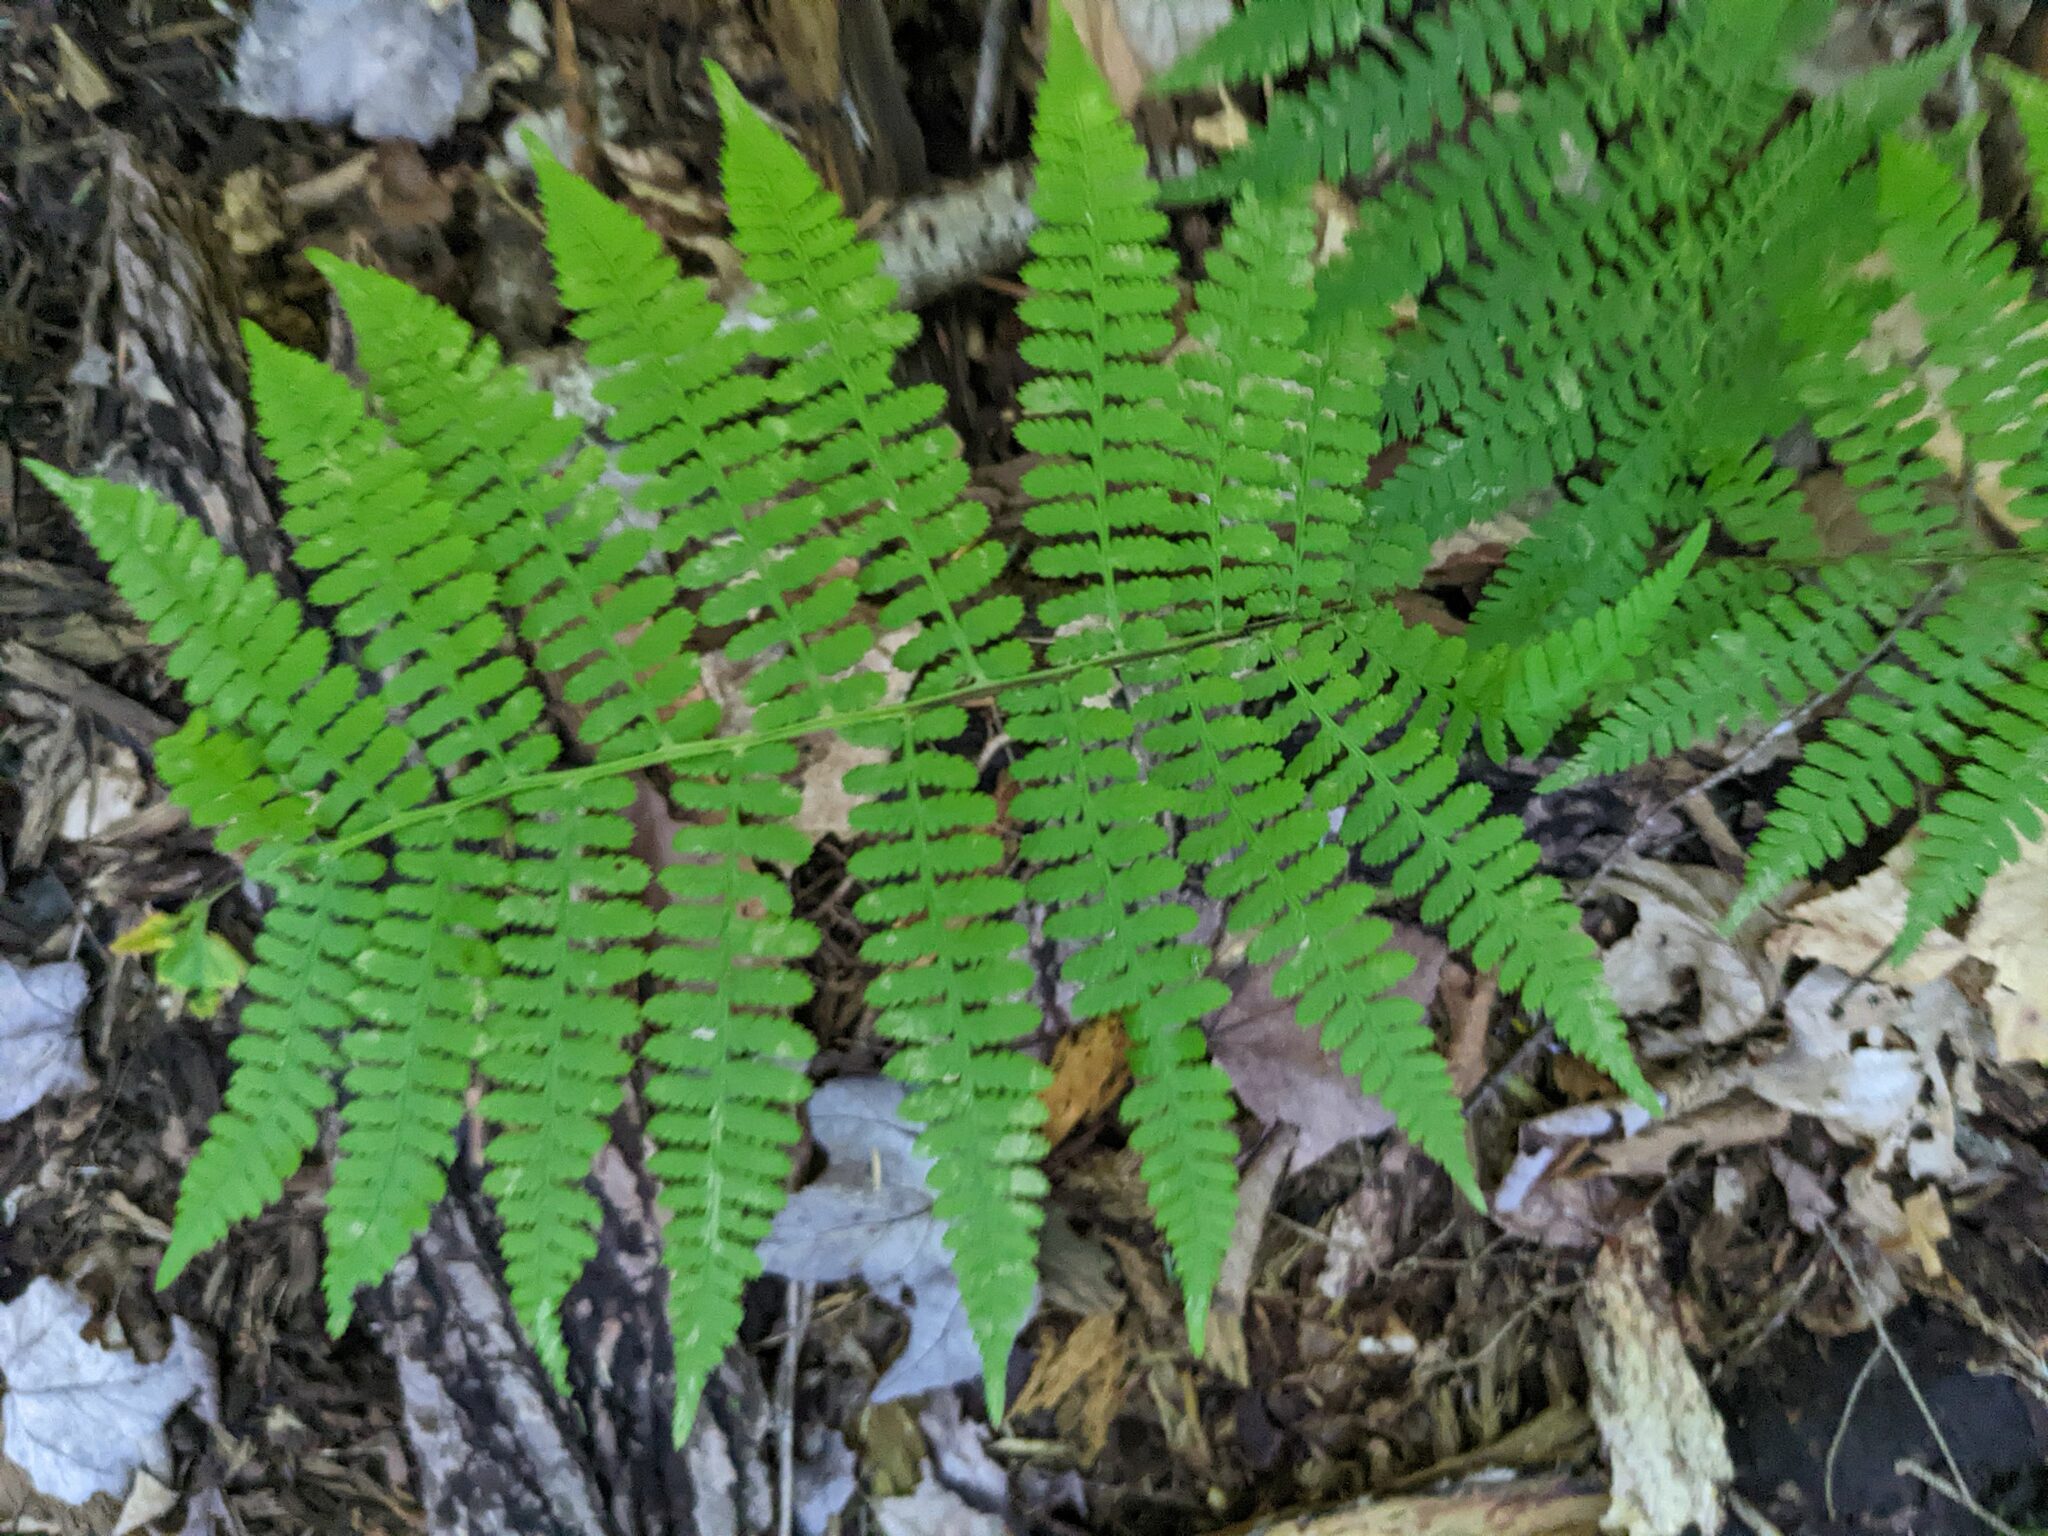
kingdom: Plantae
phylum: Tracheophyta
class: Polypodiopsida
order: Polypodiales
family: Athyriaceae
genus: Athyrium
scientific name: Athyrium angustum
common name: Northern lady fern
